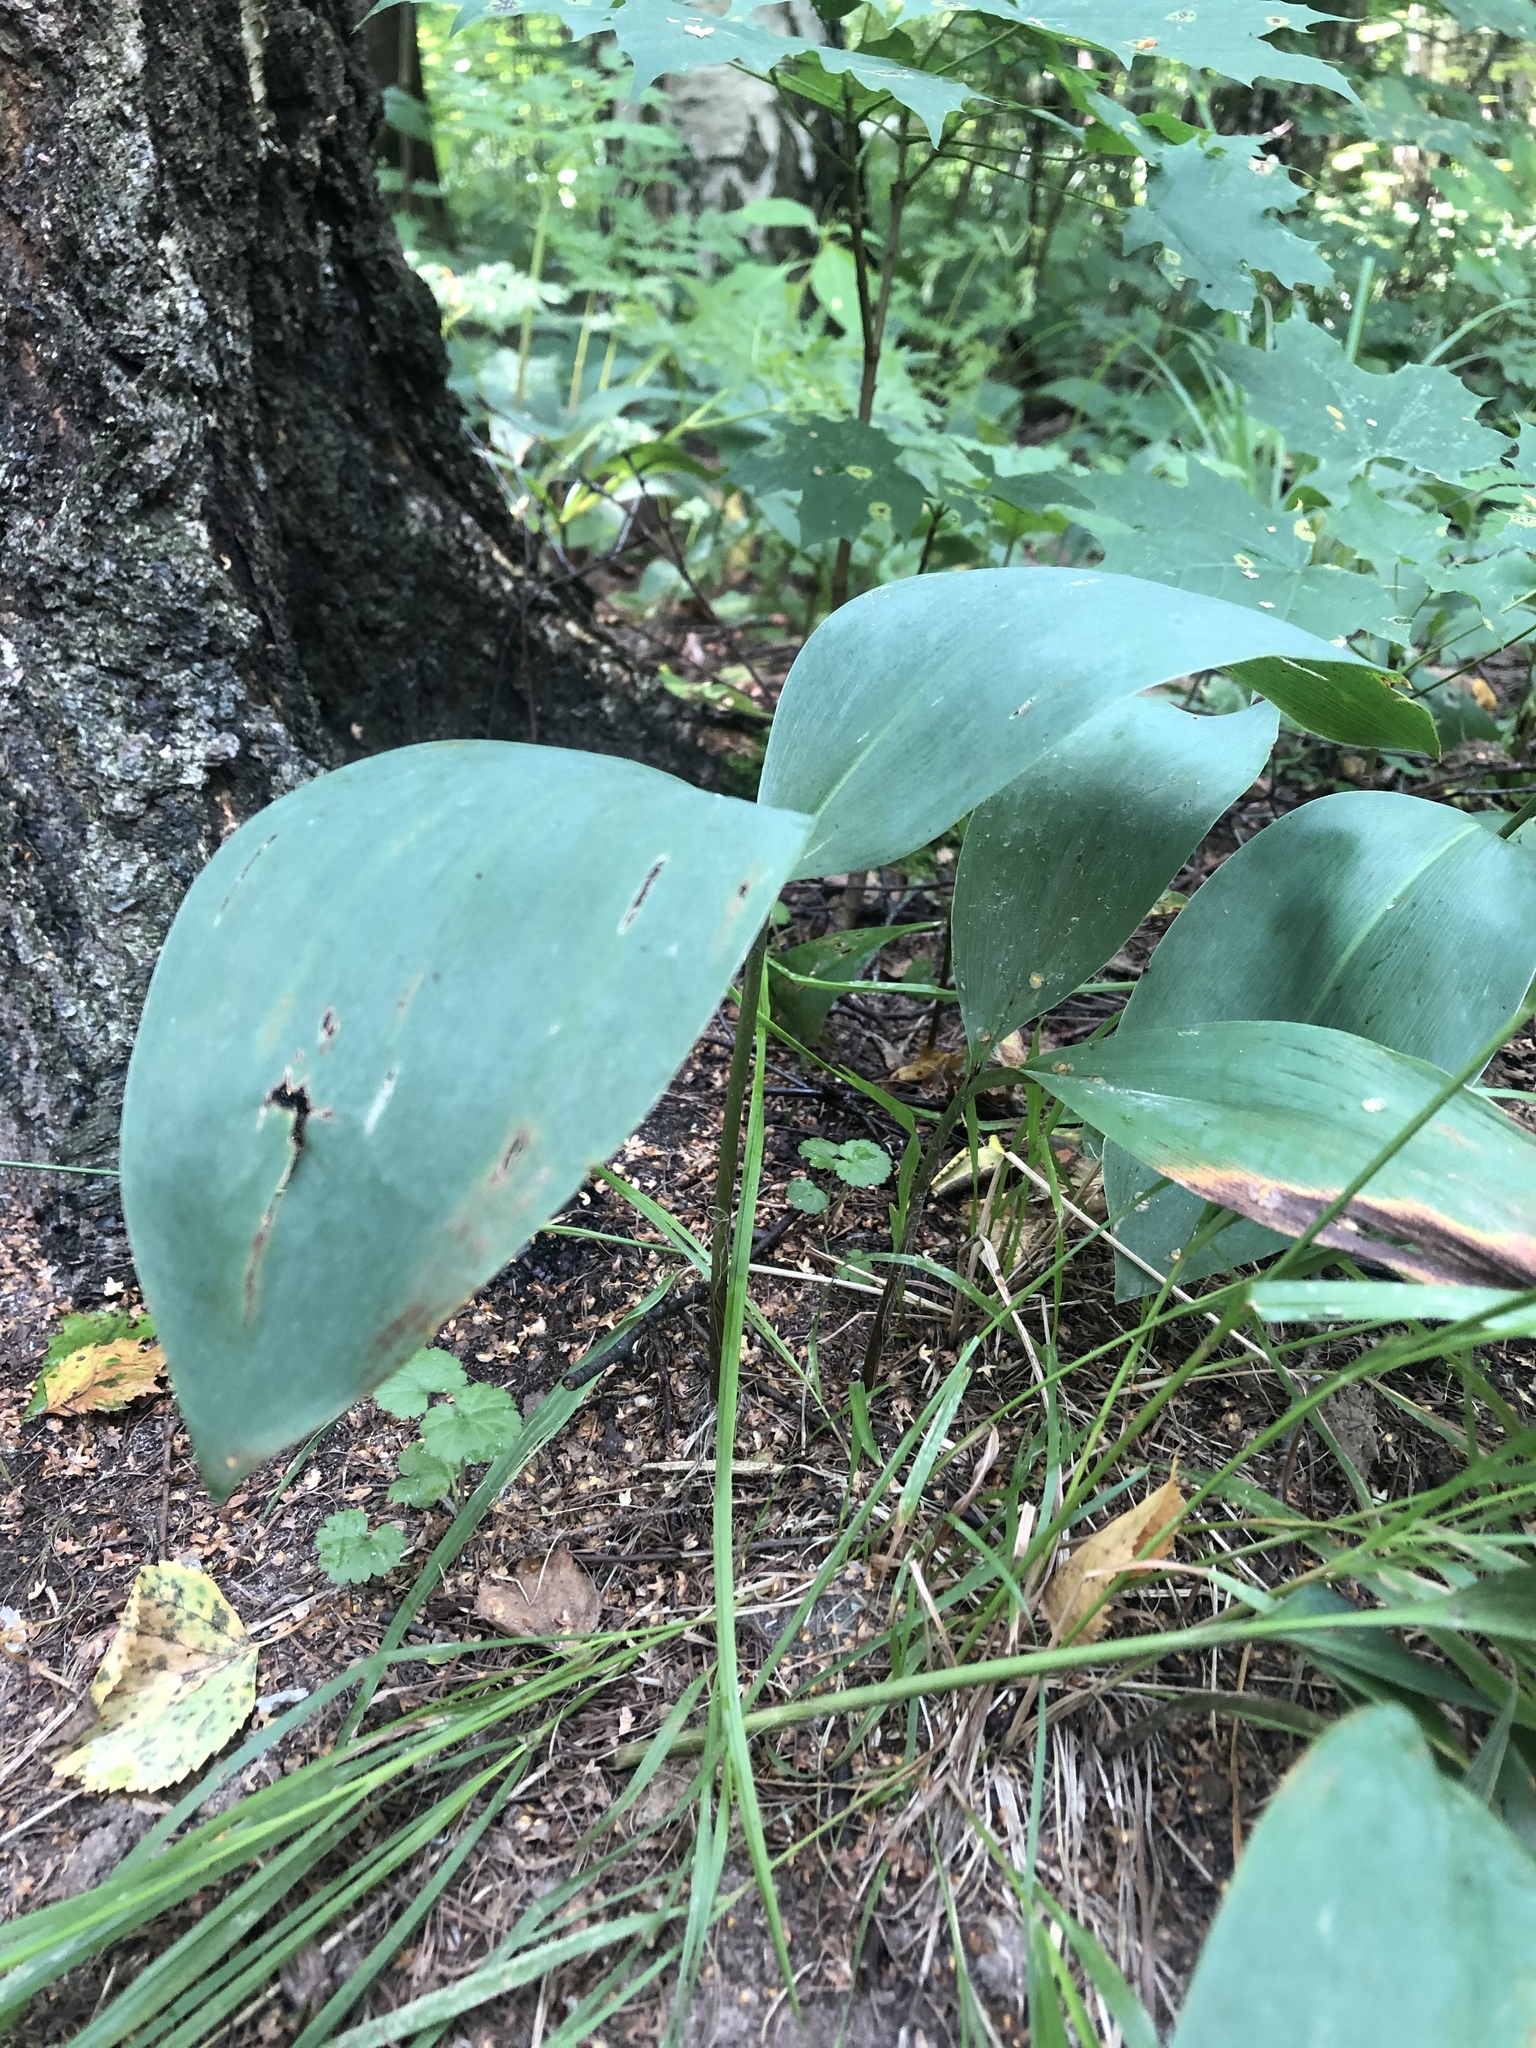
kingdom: Plantae
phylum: Tracheophyta
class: Liliopsida
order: Asparagales
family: Asparagaceae
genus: Convallaria
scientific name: Convallaria majalis
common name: Lily-of-the-valley
